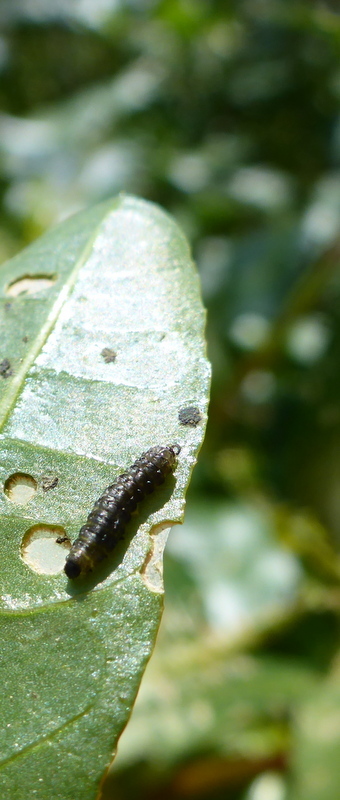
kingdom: Animalia
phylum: Arthropoda
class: Insecta
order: Coleoptera
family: Chrysomelidae
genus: Agasicles
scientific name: Agasicles hygrophila
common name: Alligatorweed flea beetle
